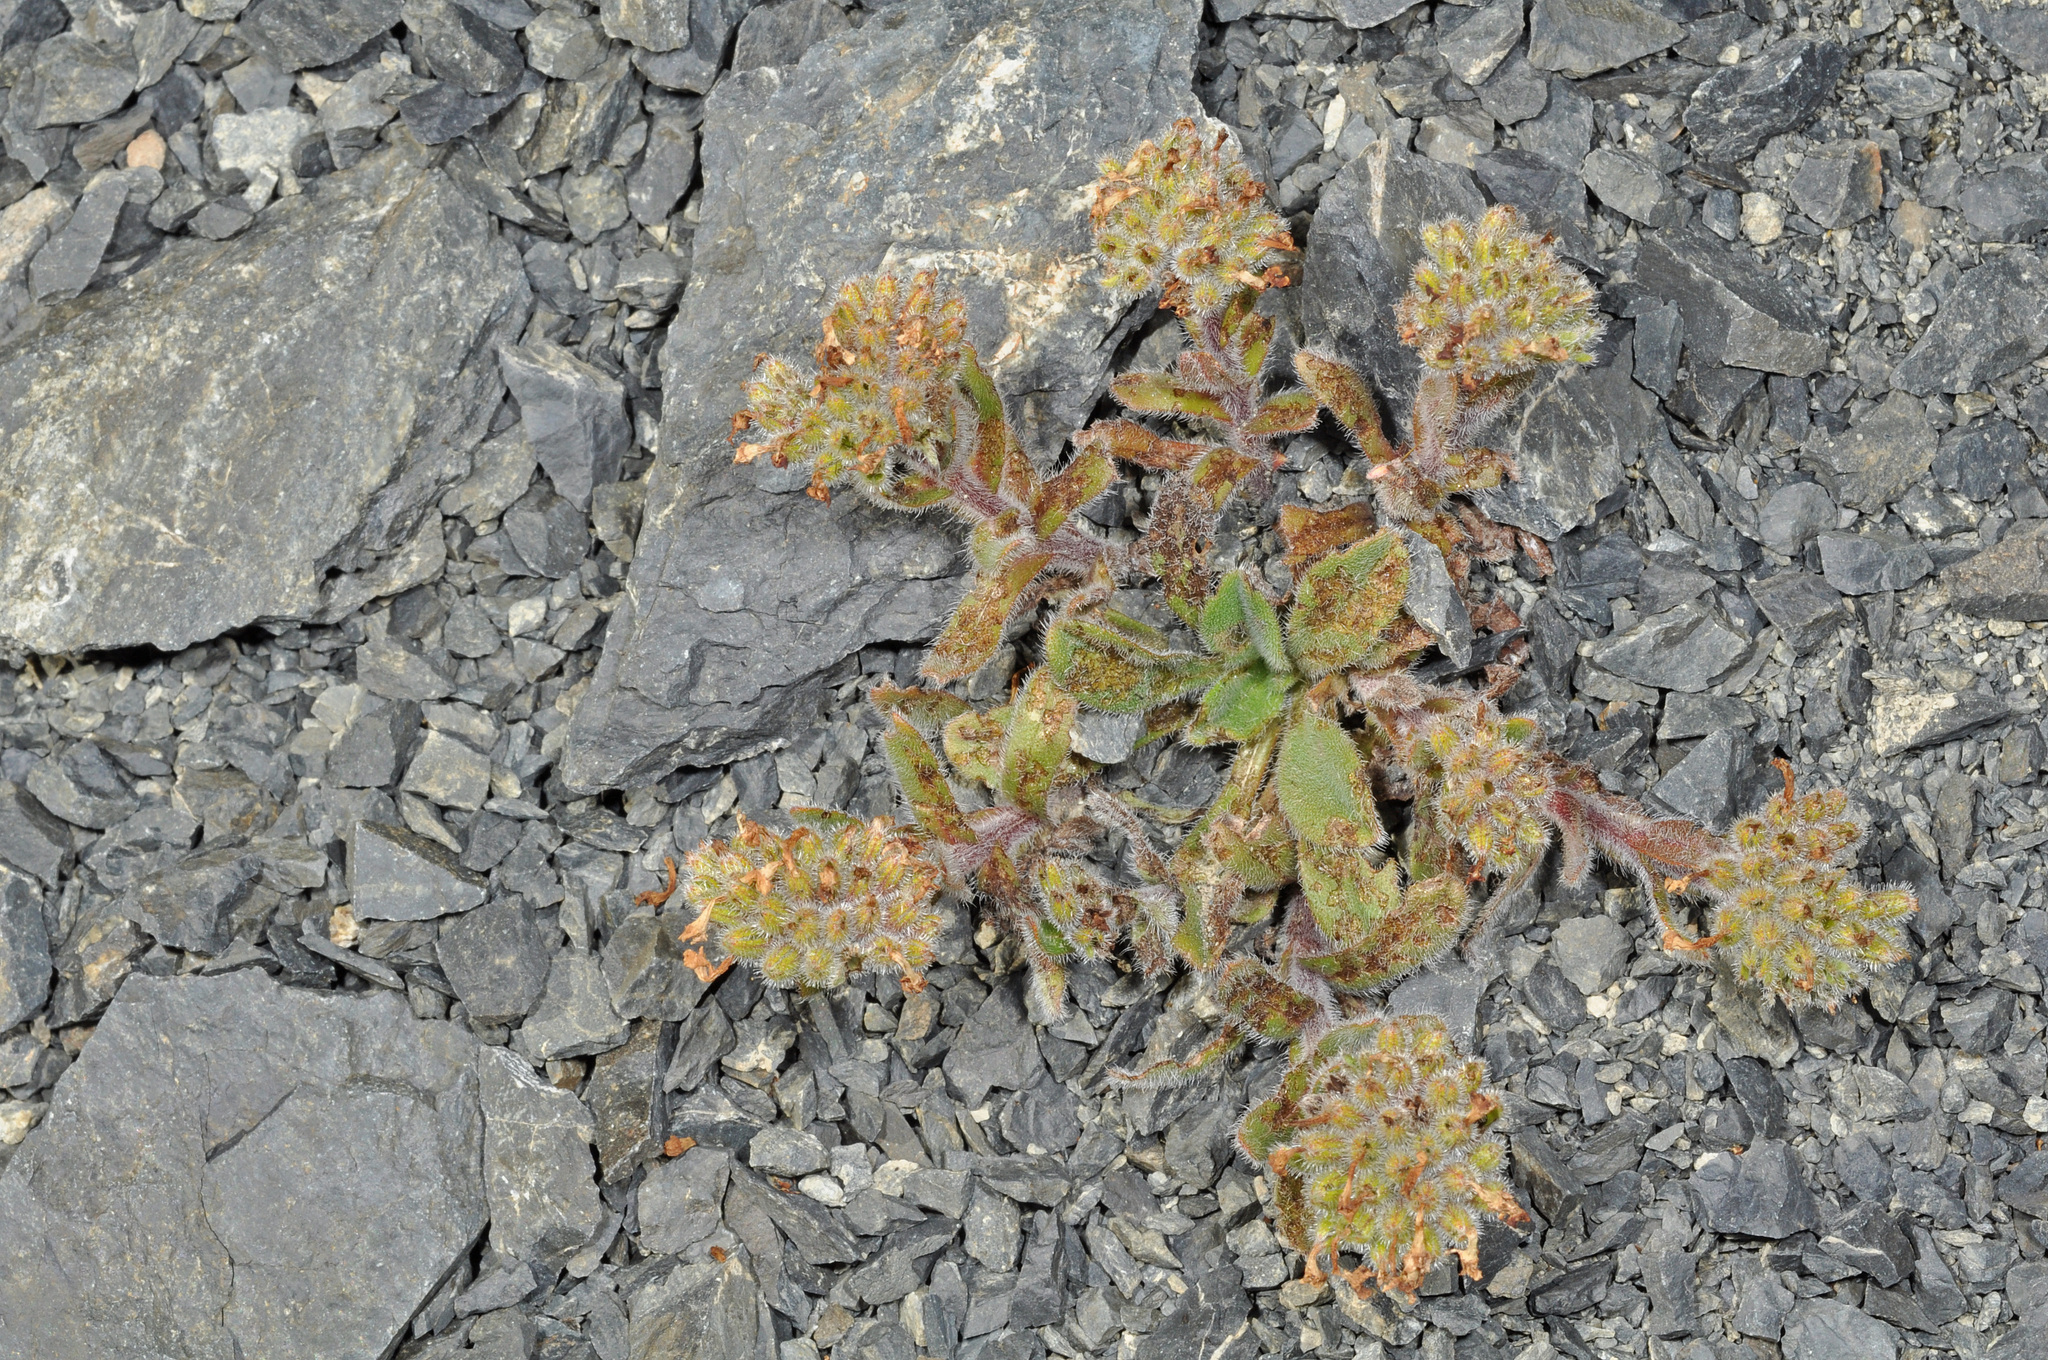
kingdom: Plantae
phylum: Tracheophyta
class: Magnoliopsida
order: Boraginales
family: Boraginaceae
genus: Myosotis
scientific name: Myosotis traversii
